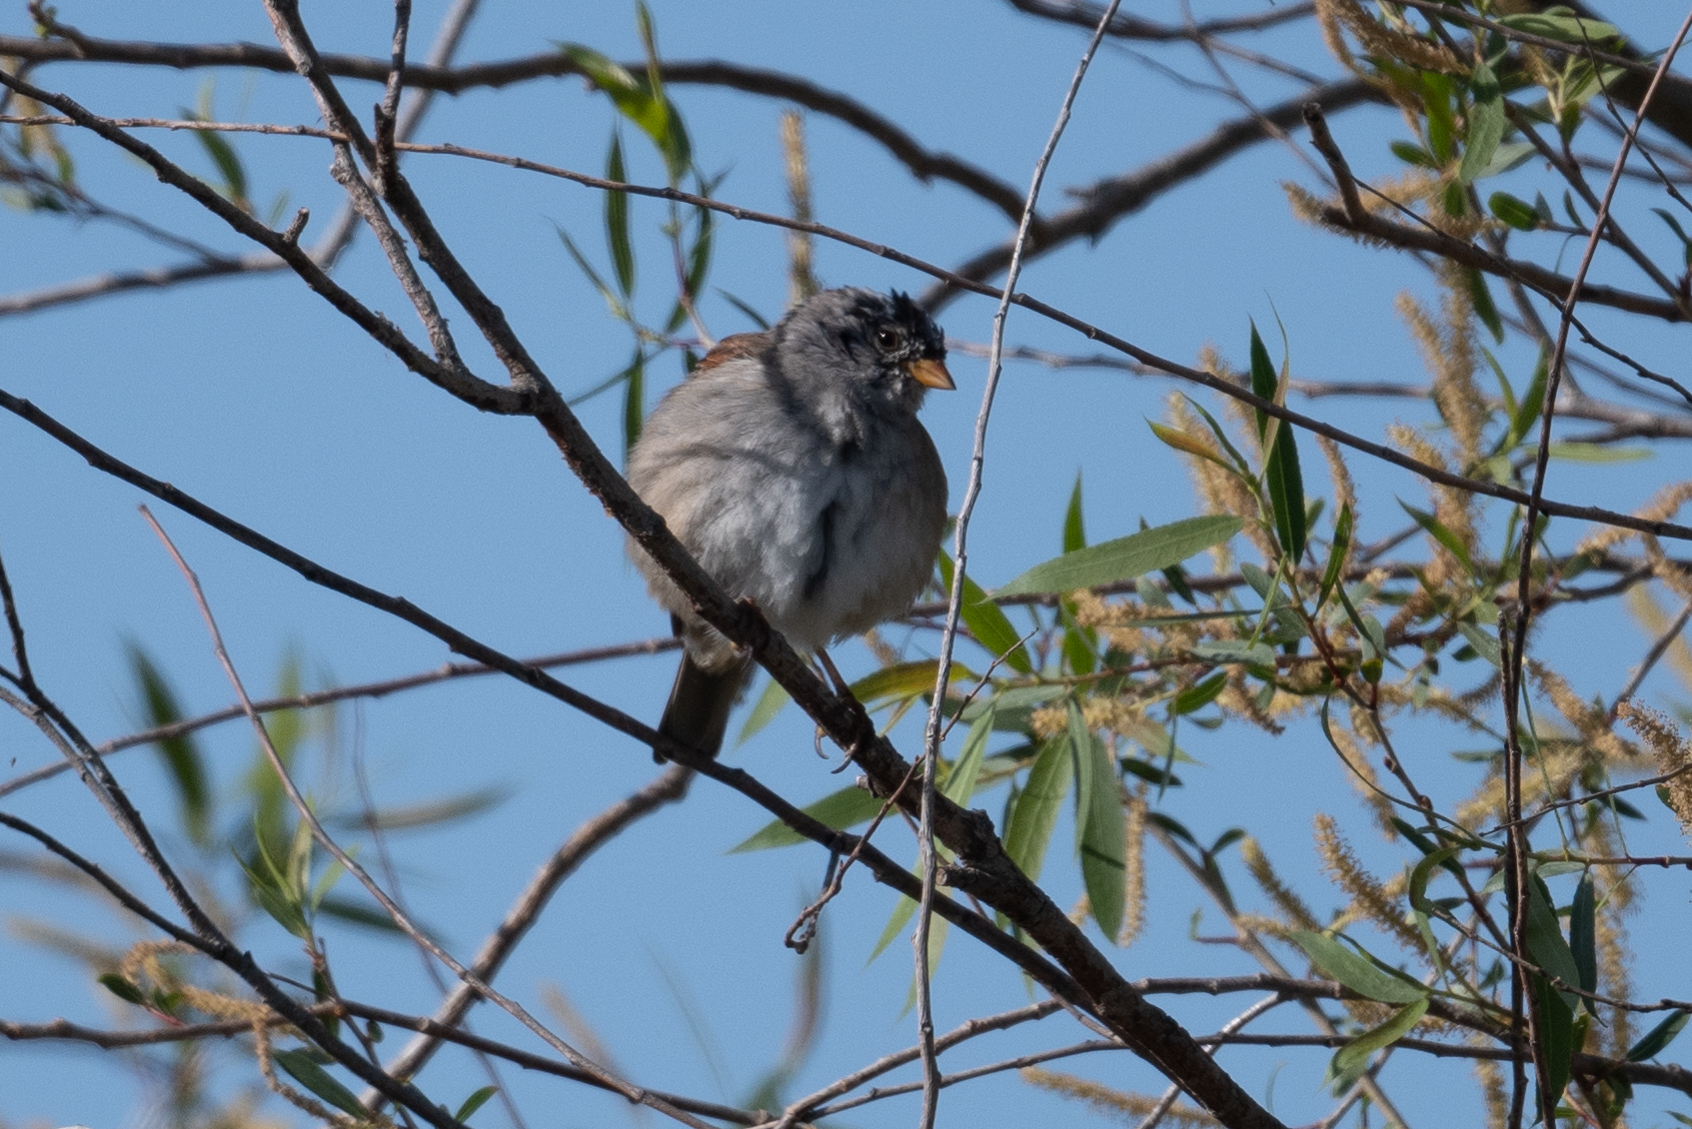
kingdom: Animalia
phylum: Chordata
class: Aves
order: Passeriformes
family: Passerellidae
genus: Zonotrichia
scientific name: Zonotrichia leucophrys
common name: White-crowned sparrow
